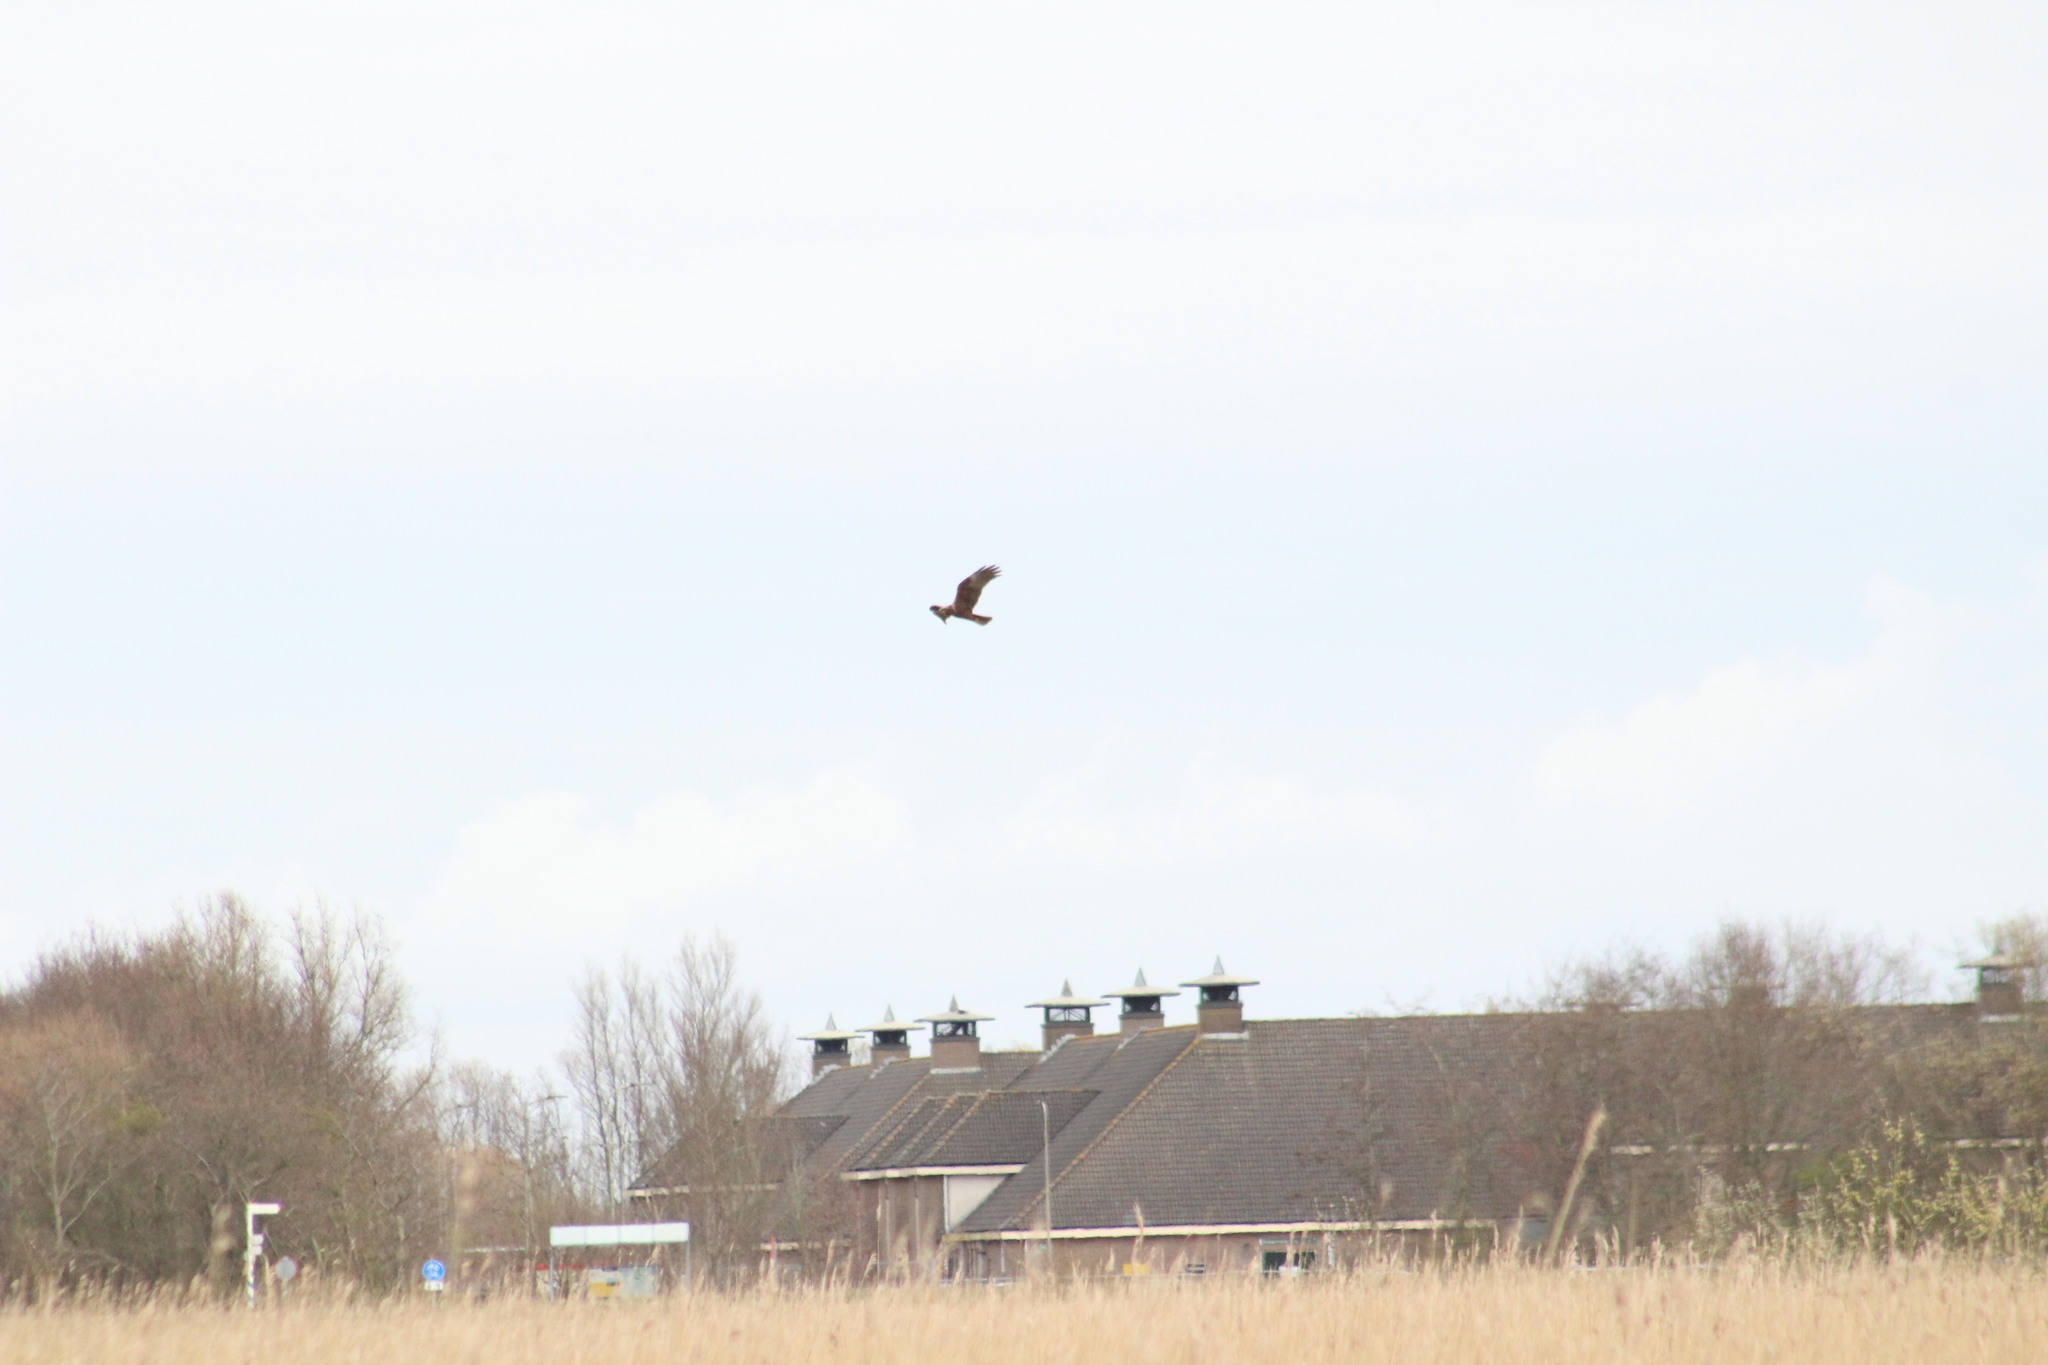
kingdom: Animalia
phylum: Chordata
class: Aves
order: Accipitriformes
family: Accipitridae
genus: Circus
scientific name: Circus aeruginosus
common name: Western marsh harrier
